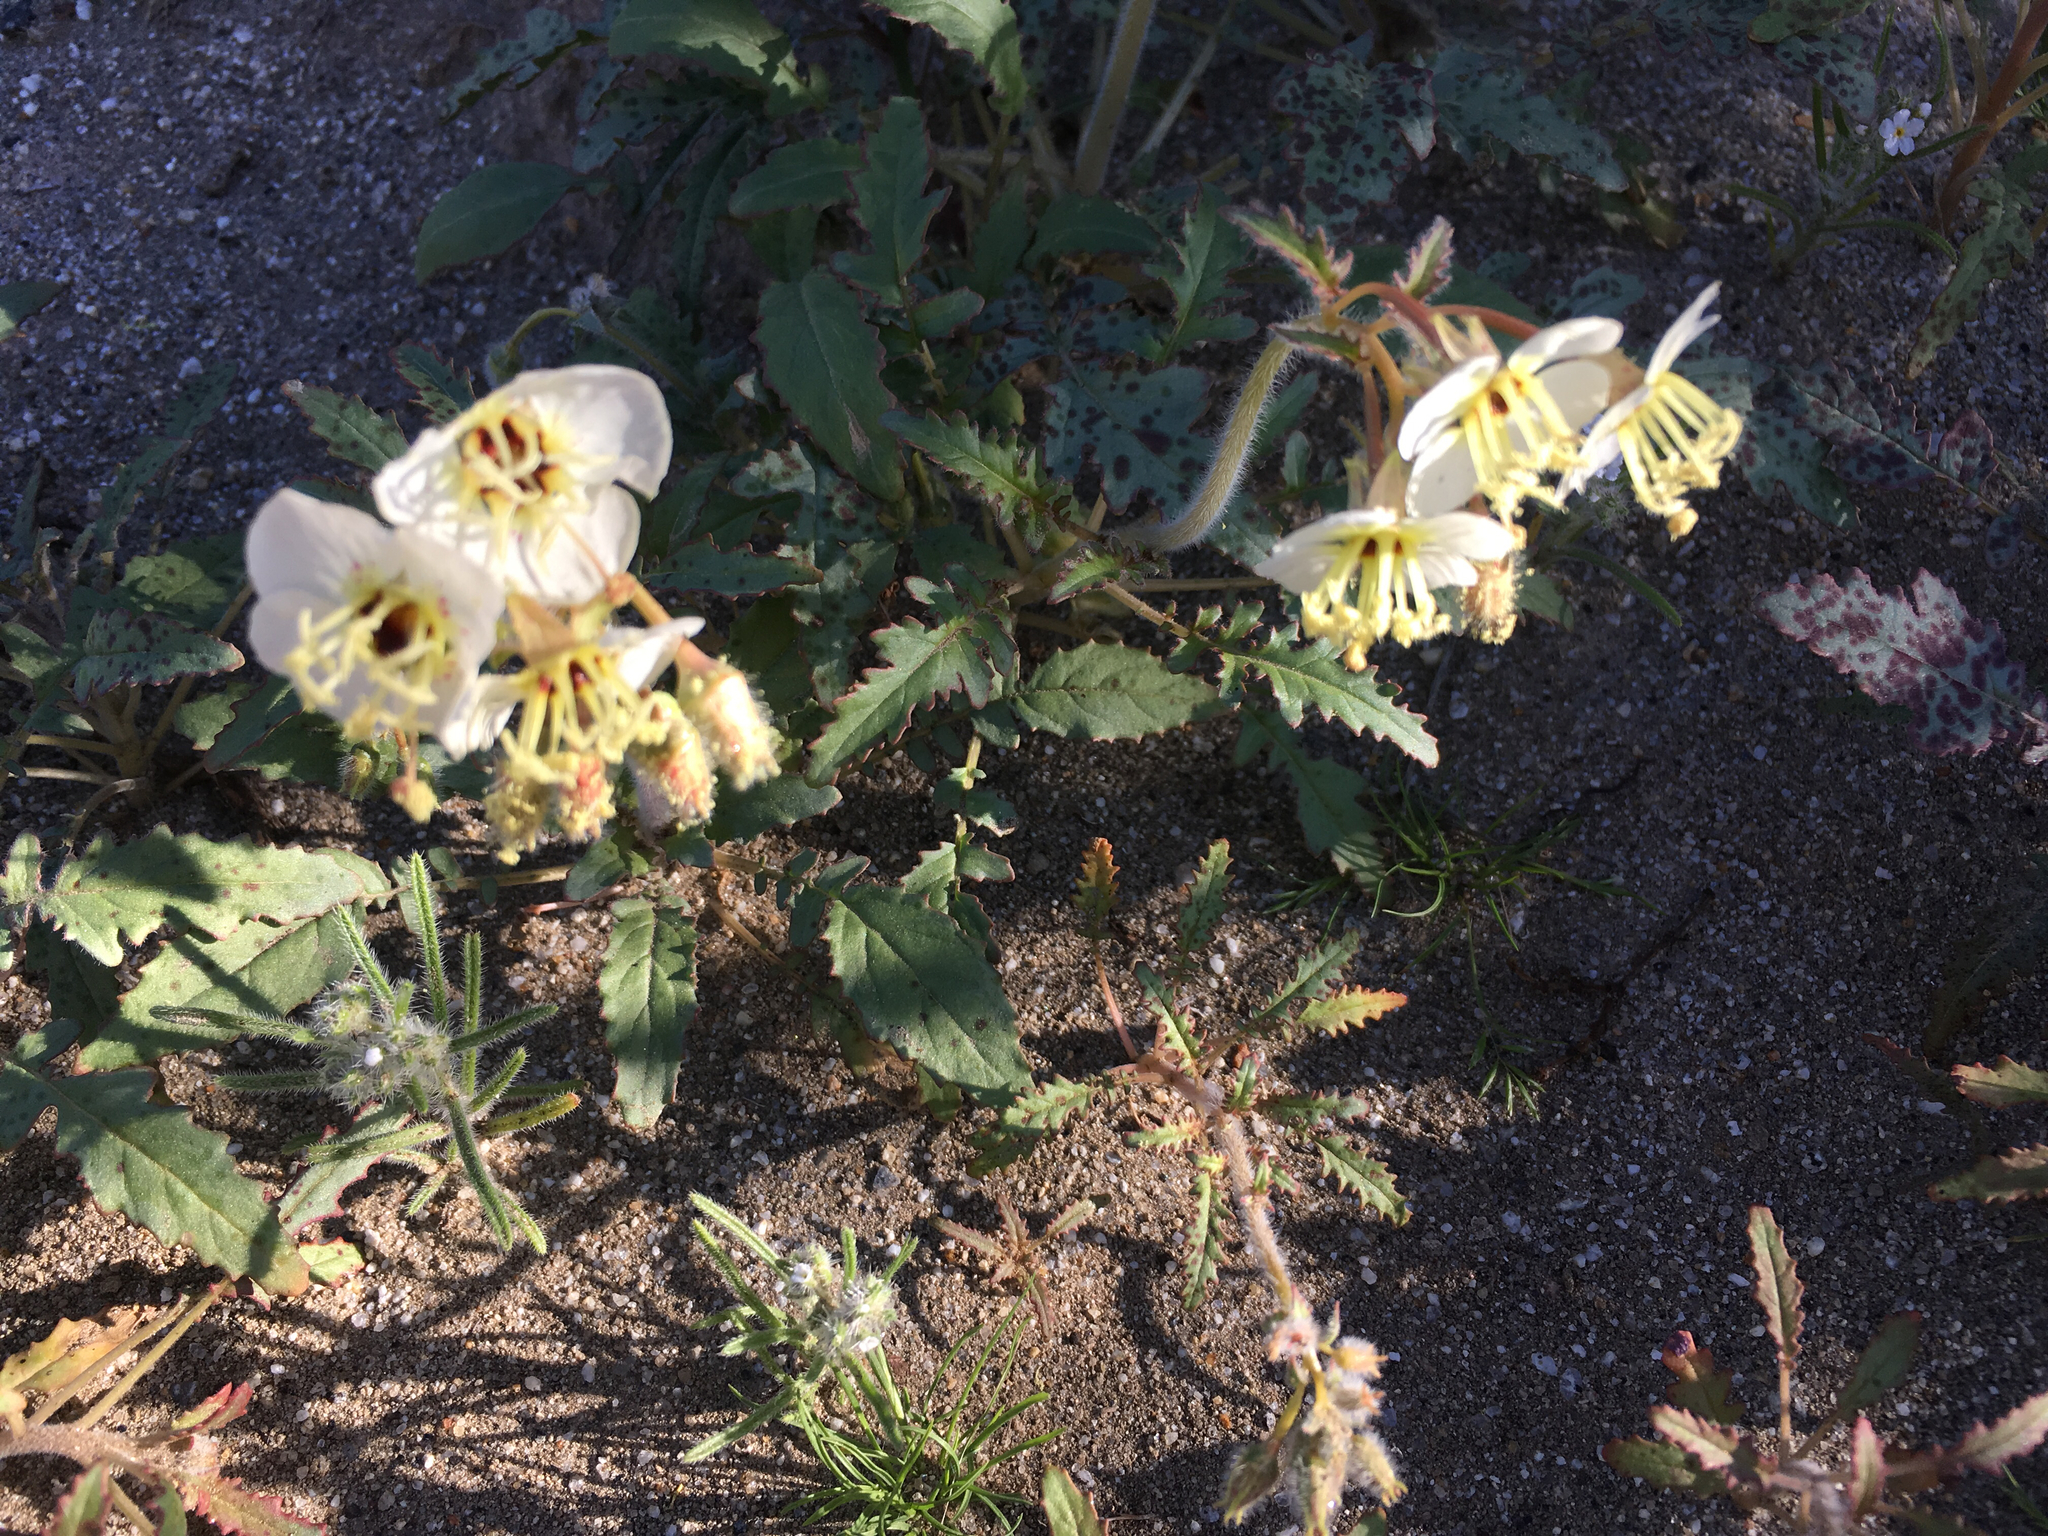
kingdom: Plantae
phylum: Tracheophyta
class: Magnoliopsida
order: Myrtales
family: Onagraceae
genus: Chylismia
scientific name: Chylismia claviformis
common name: Browneyes
